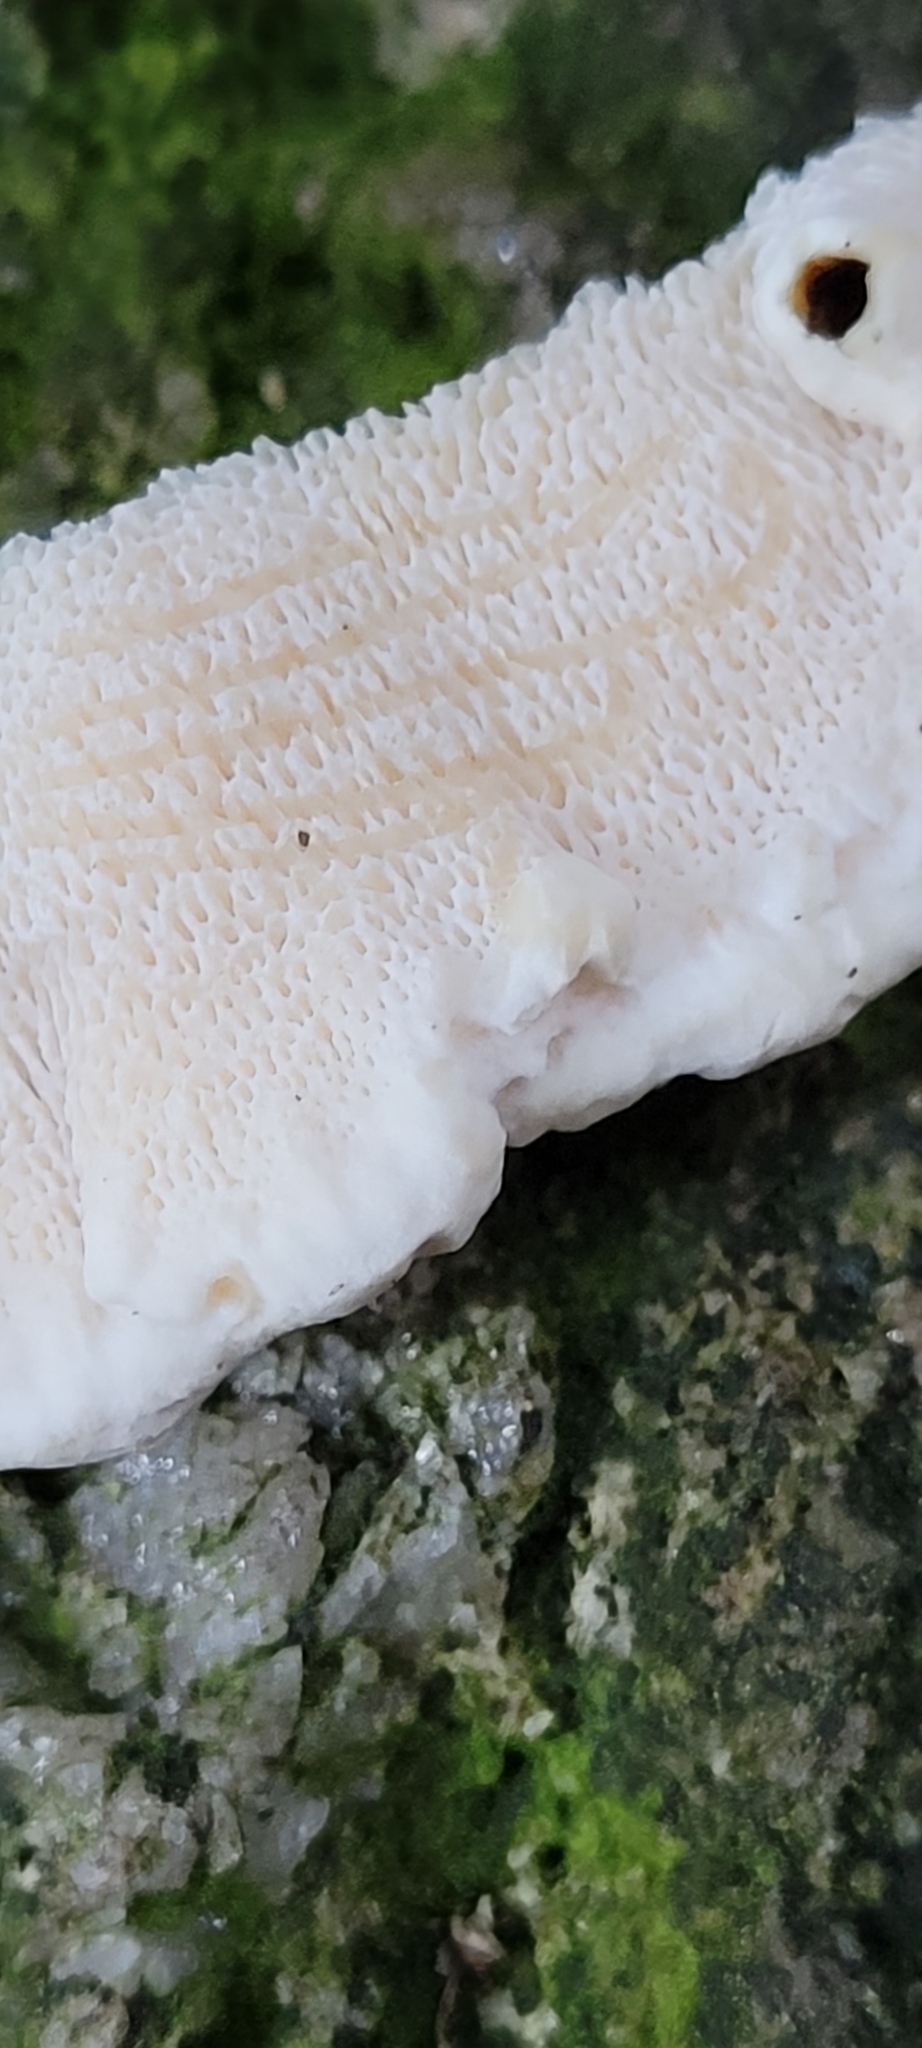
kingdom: Fungi
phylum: Basidiomycota
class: Agaricomycetes
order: Russulales
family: Bondarzewiaceae
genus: Heterobasidion
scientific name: Heterobasidion annosum
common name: Root rot
